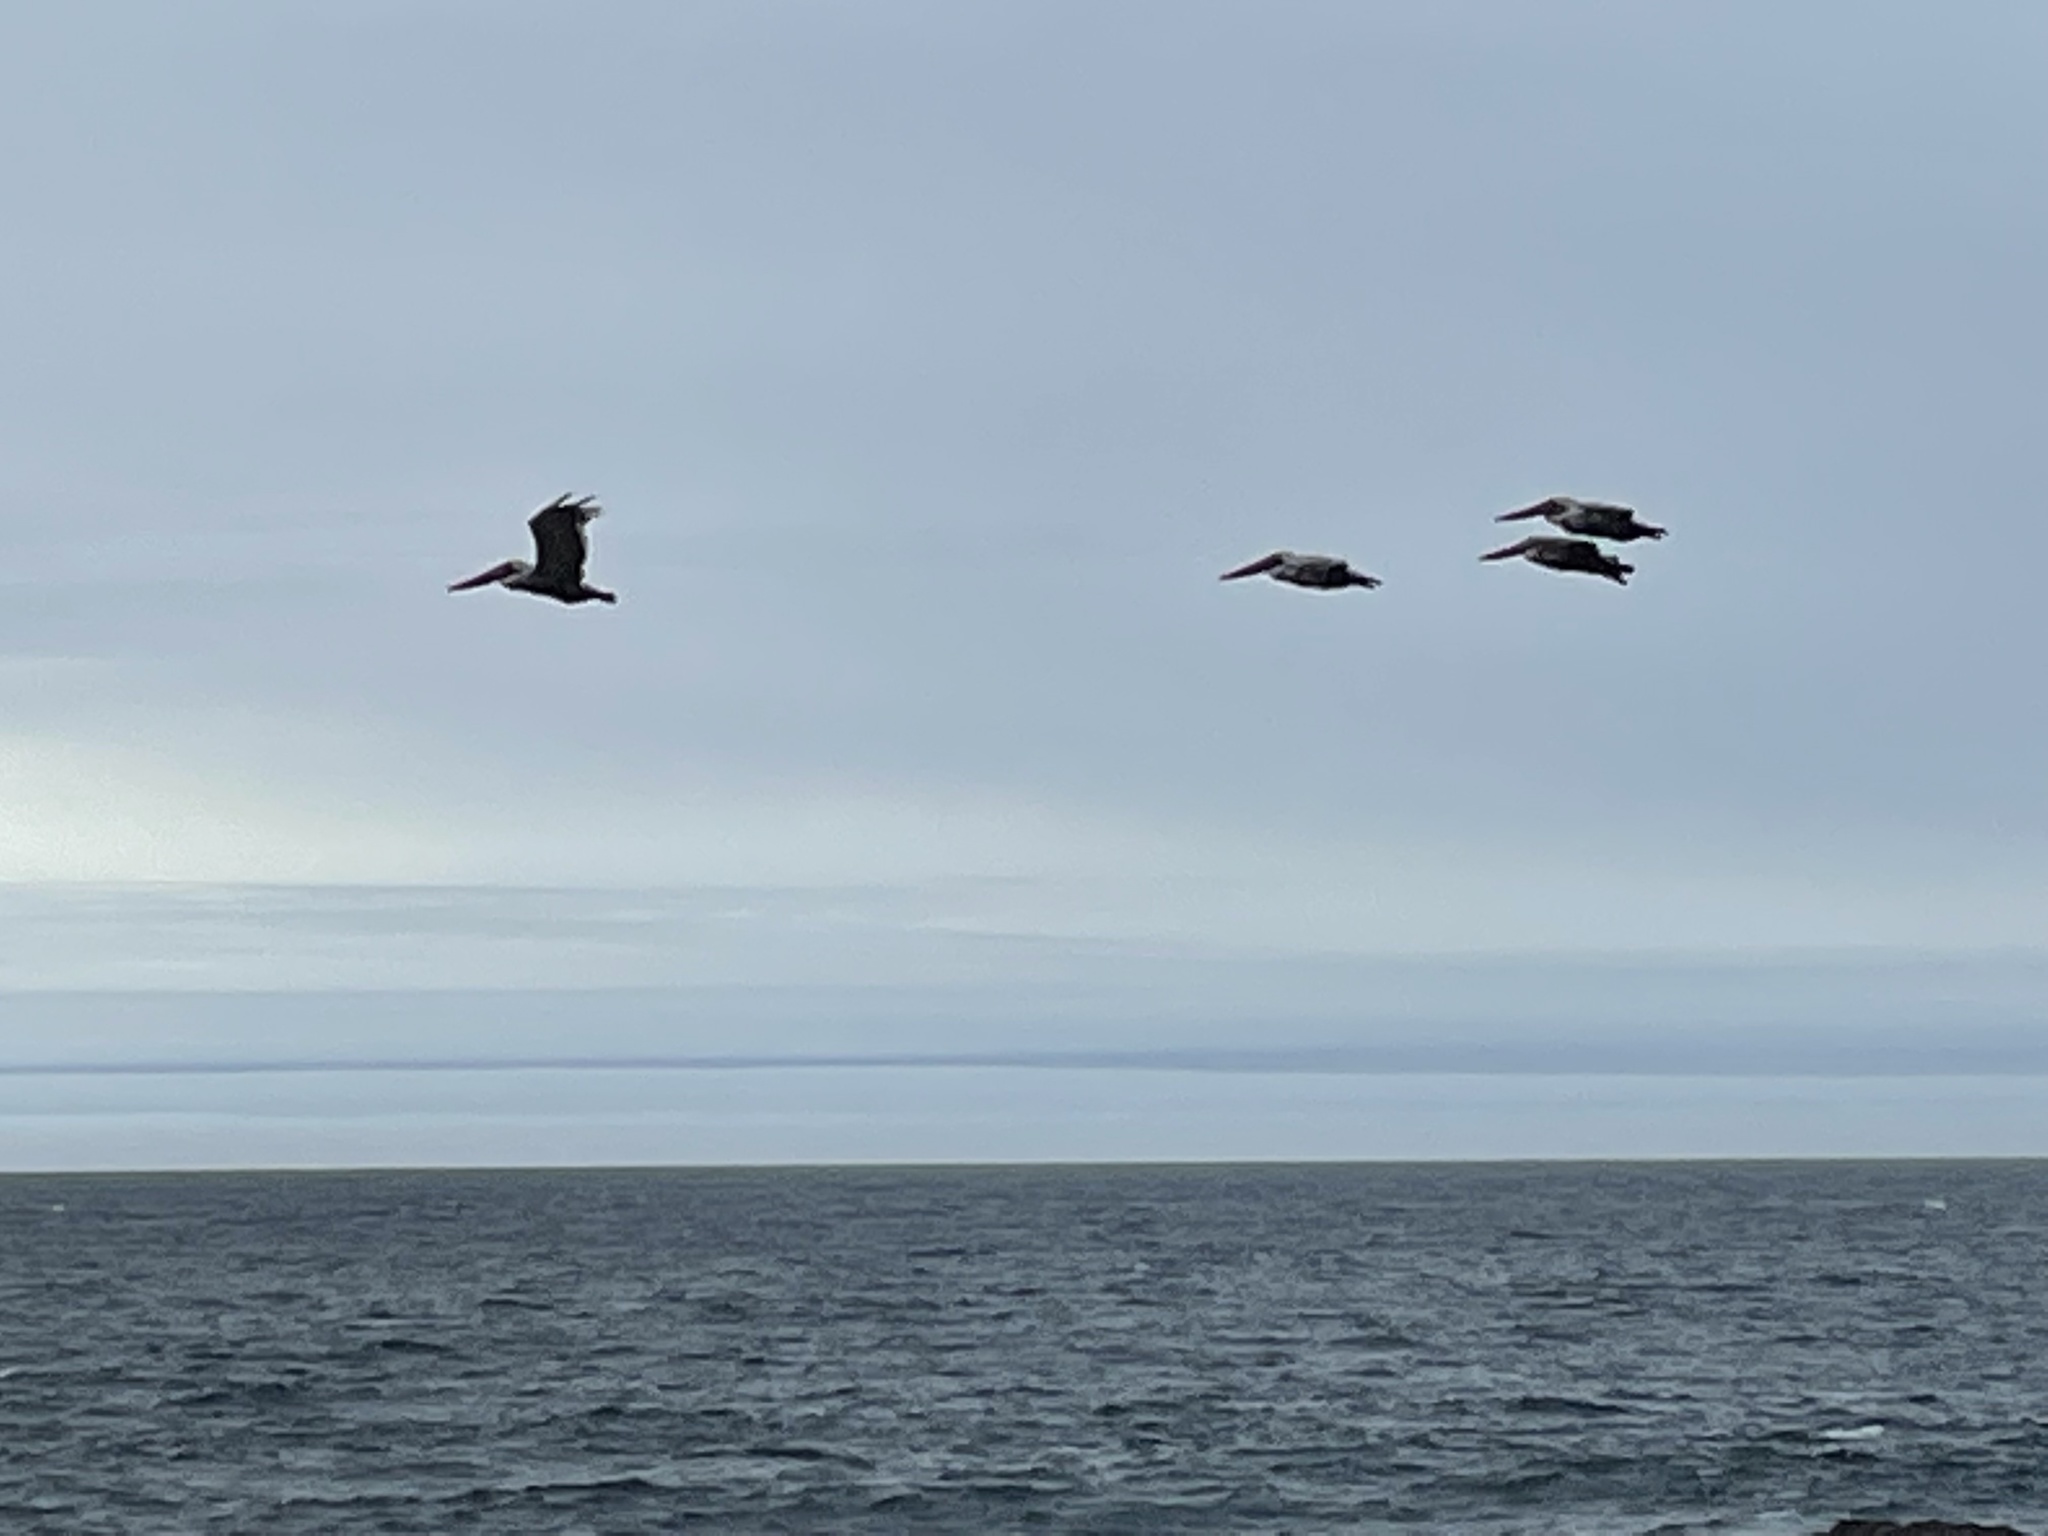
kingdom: Animalia
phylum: Chordata
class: Aves
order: Pelecaniformes
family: Pelecanidae
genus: Pelecanus
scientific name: Pelecanus occidentalis
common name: Brown pelican
